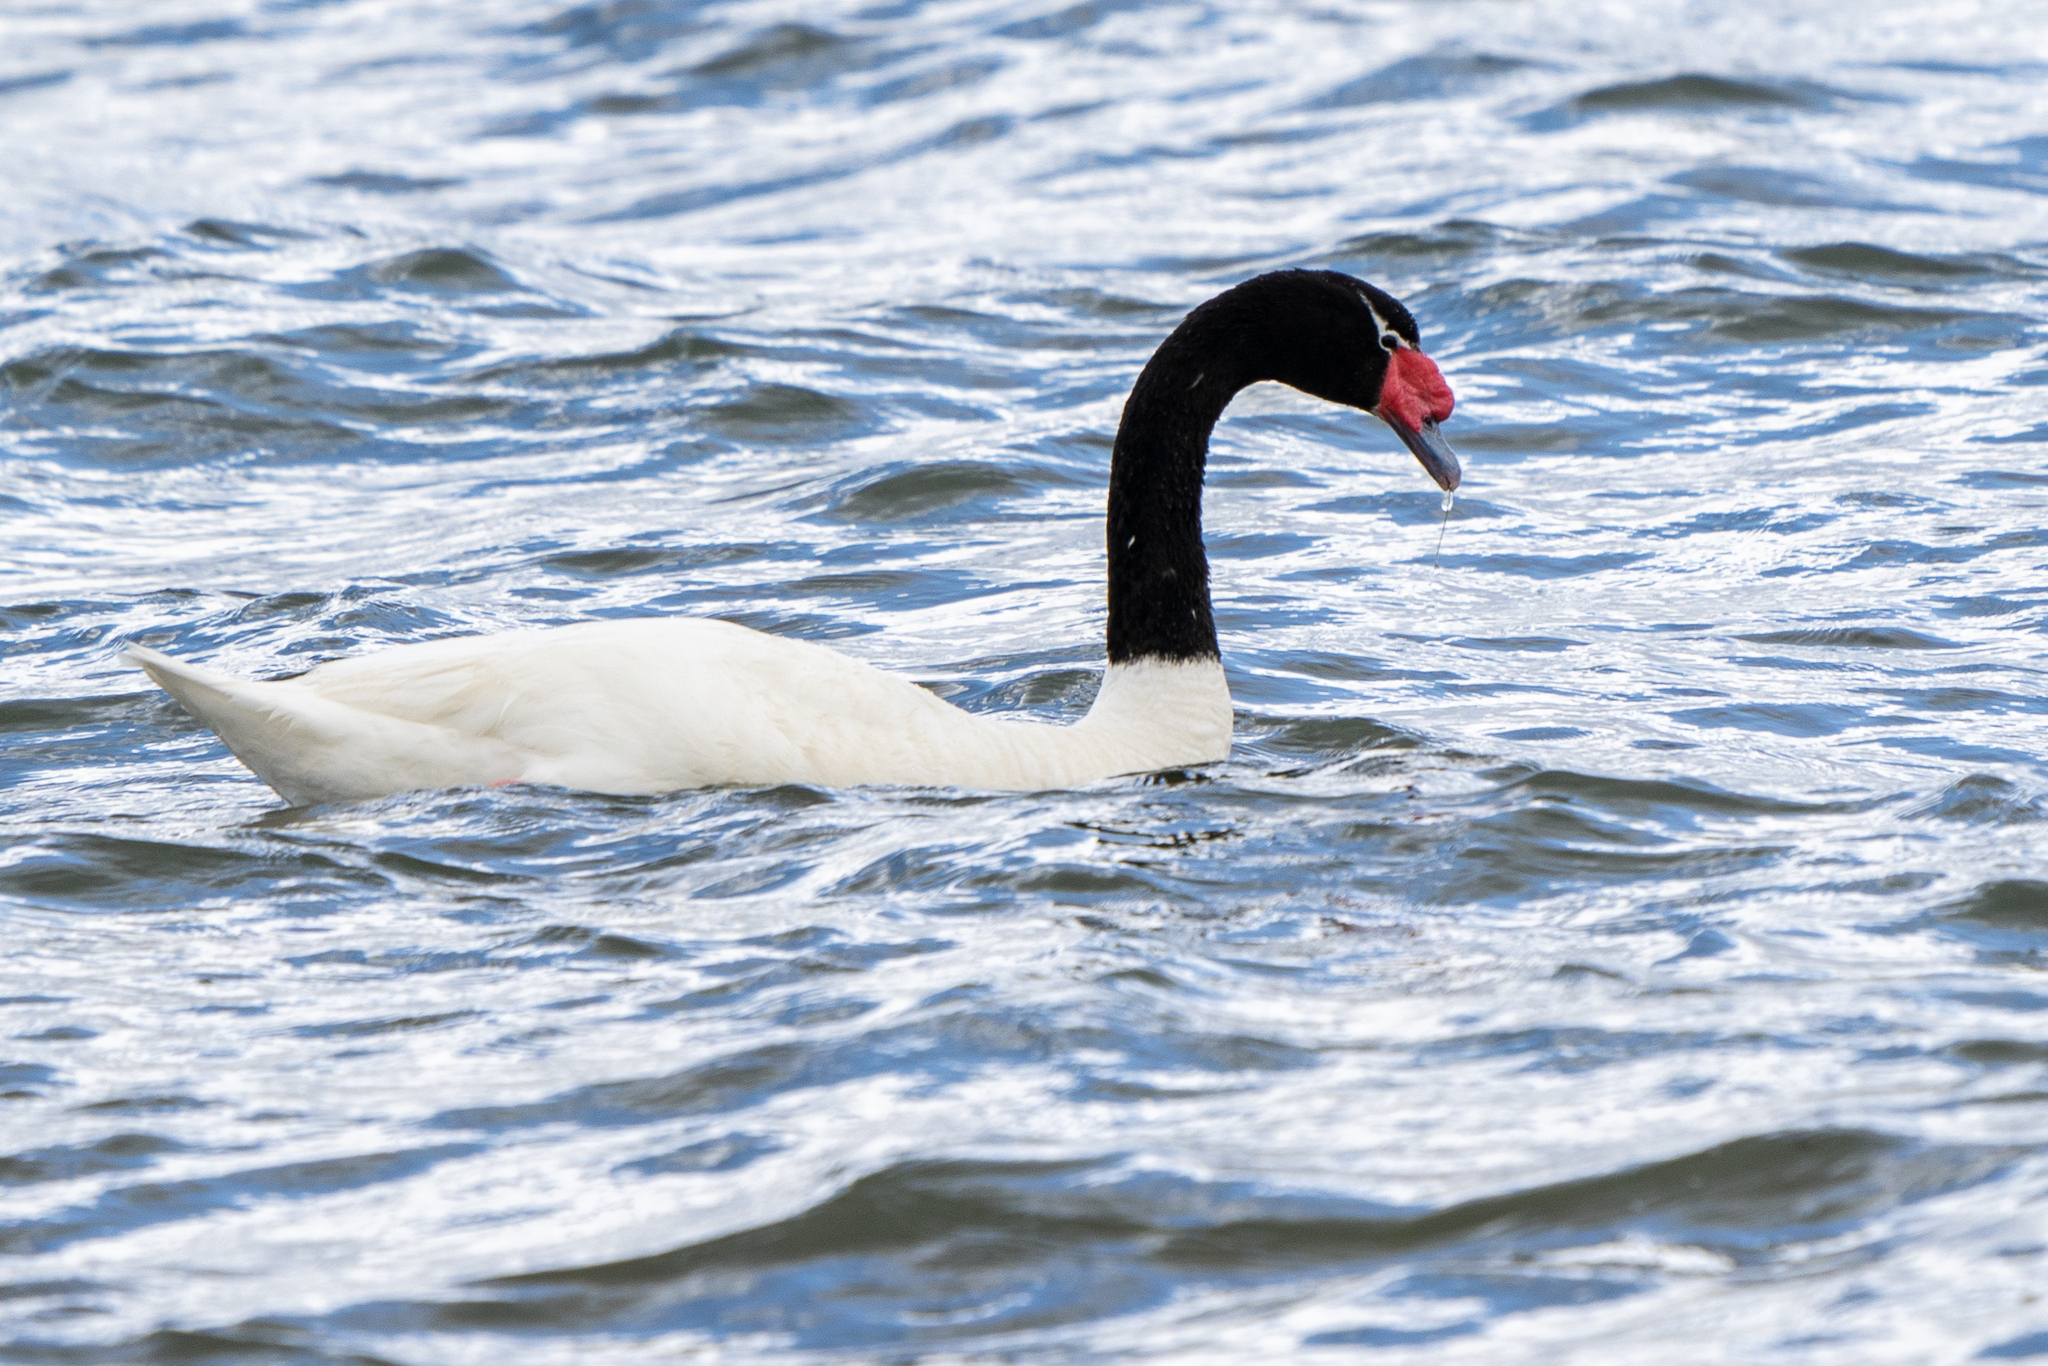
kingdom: Animalia
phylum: Chordata
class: Aves
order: Anseriformes
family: Anatidae
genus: Cygnus
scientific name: Cygnus melancoryphus
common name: Black-necked swan
